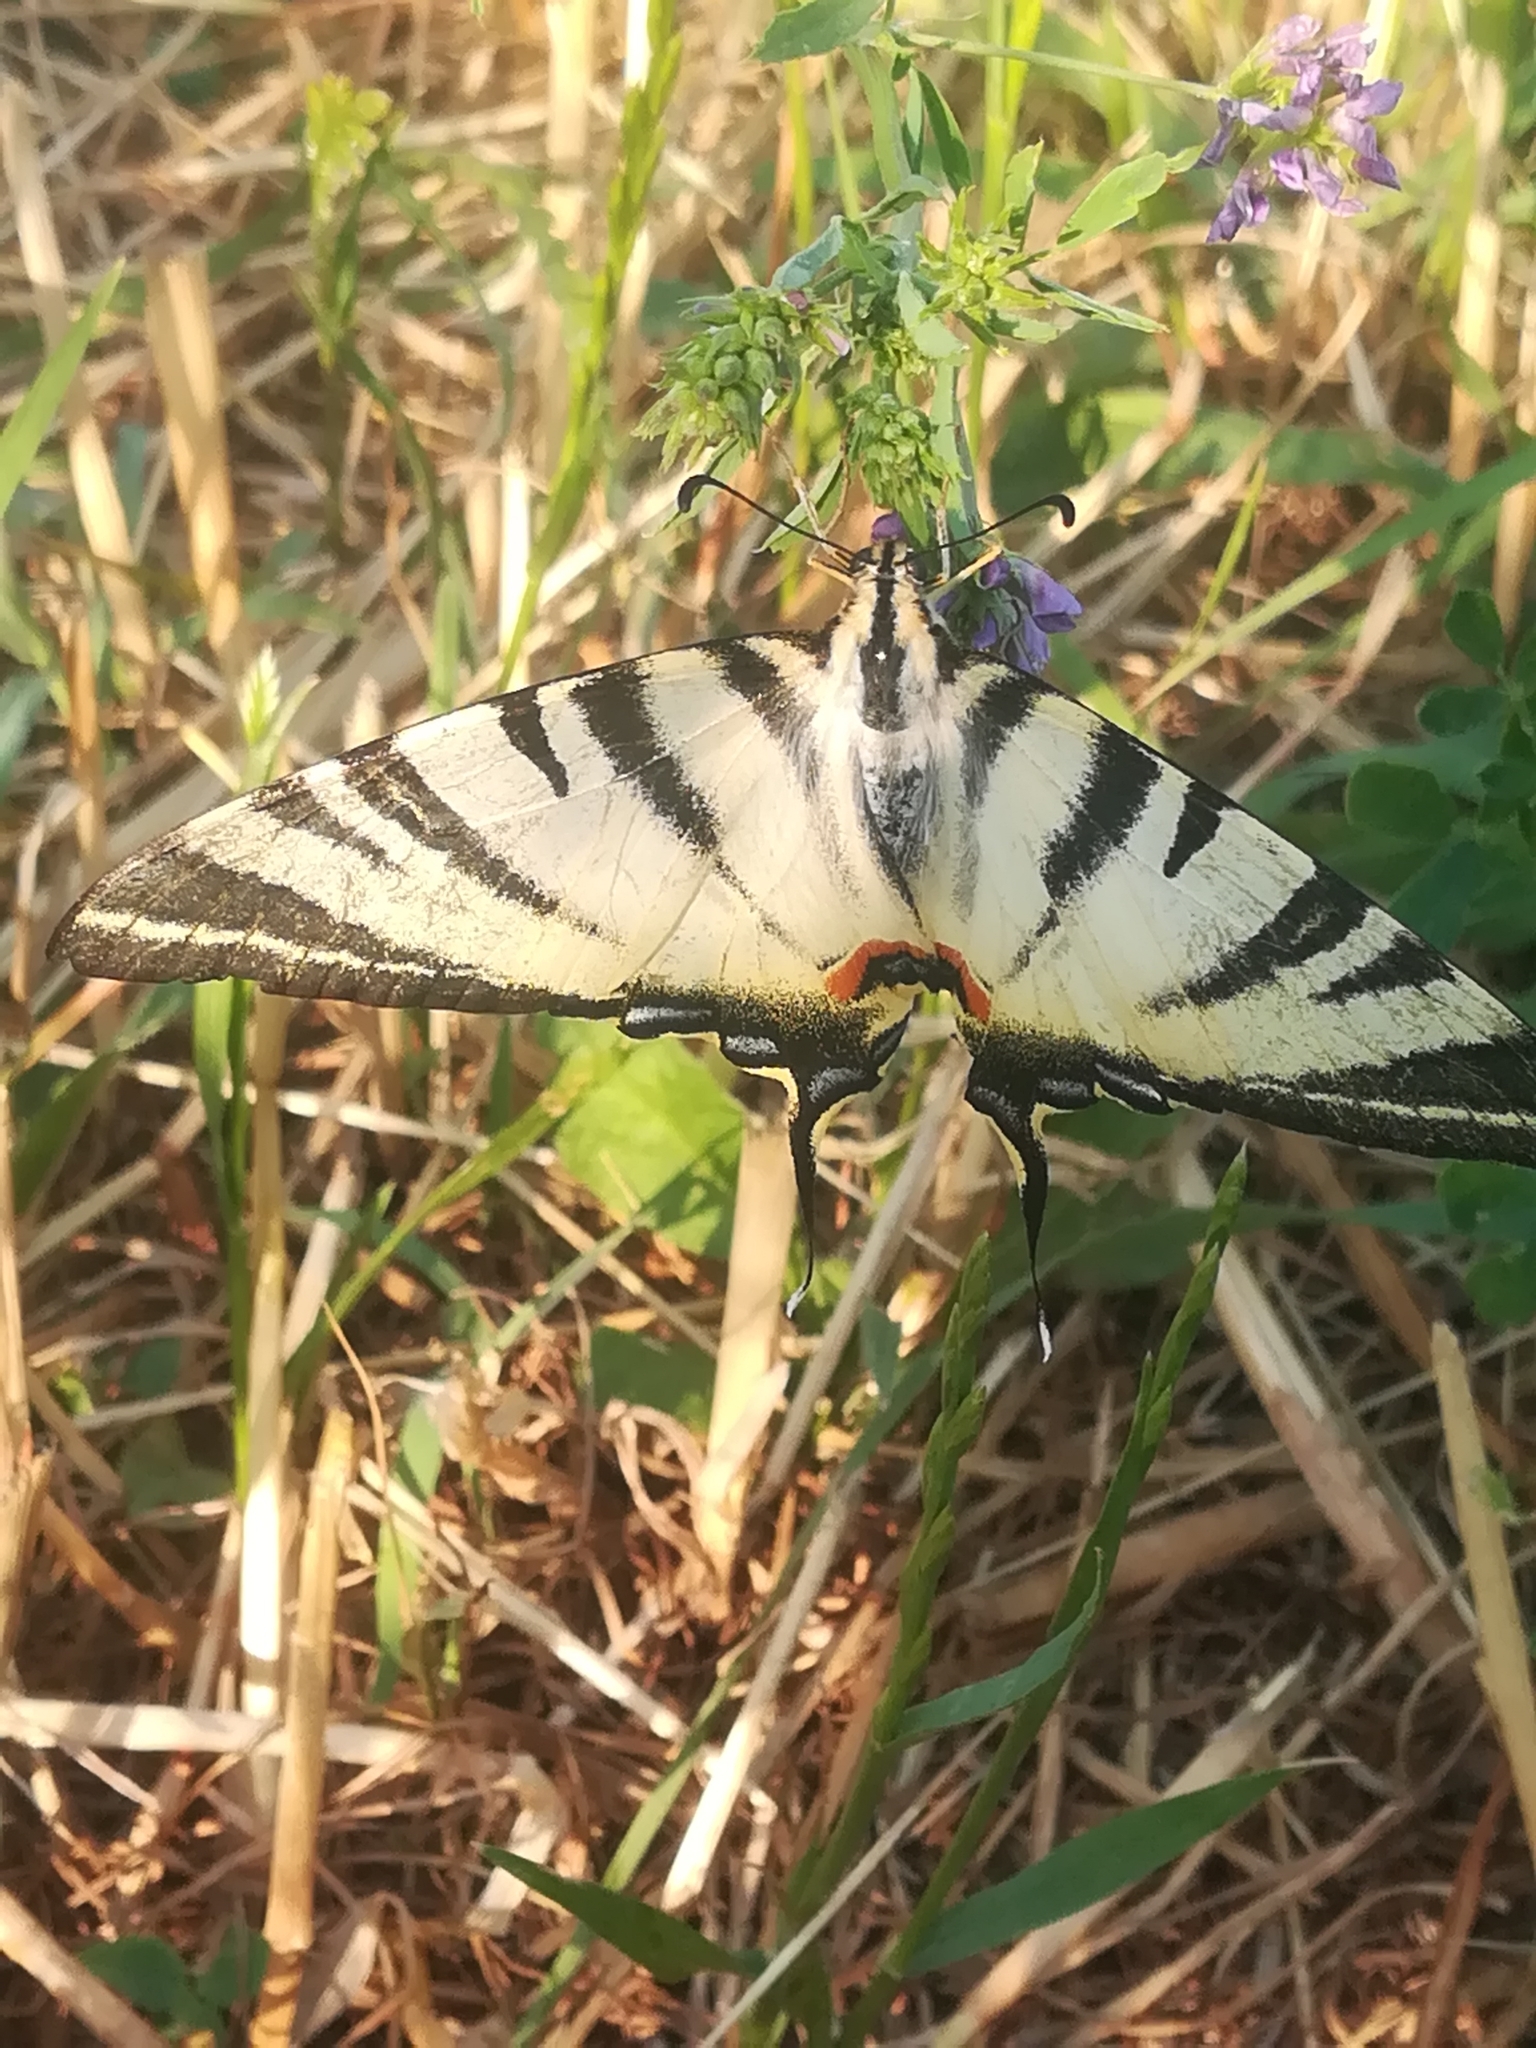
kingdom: Animalia
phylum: Arthropoda
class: Insecta
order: Lepidoptera
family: Papilionidae
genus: Iphiclides
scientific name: Iphiclides podalirius
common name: Scarce swallowtail
